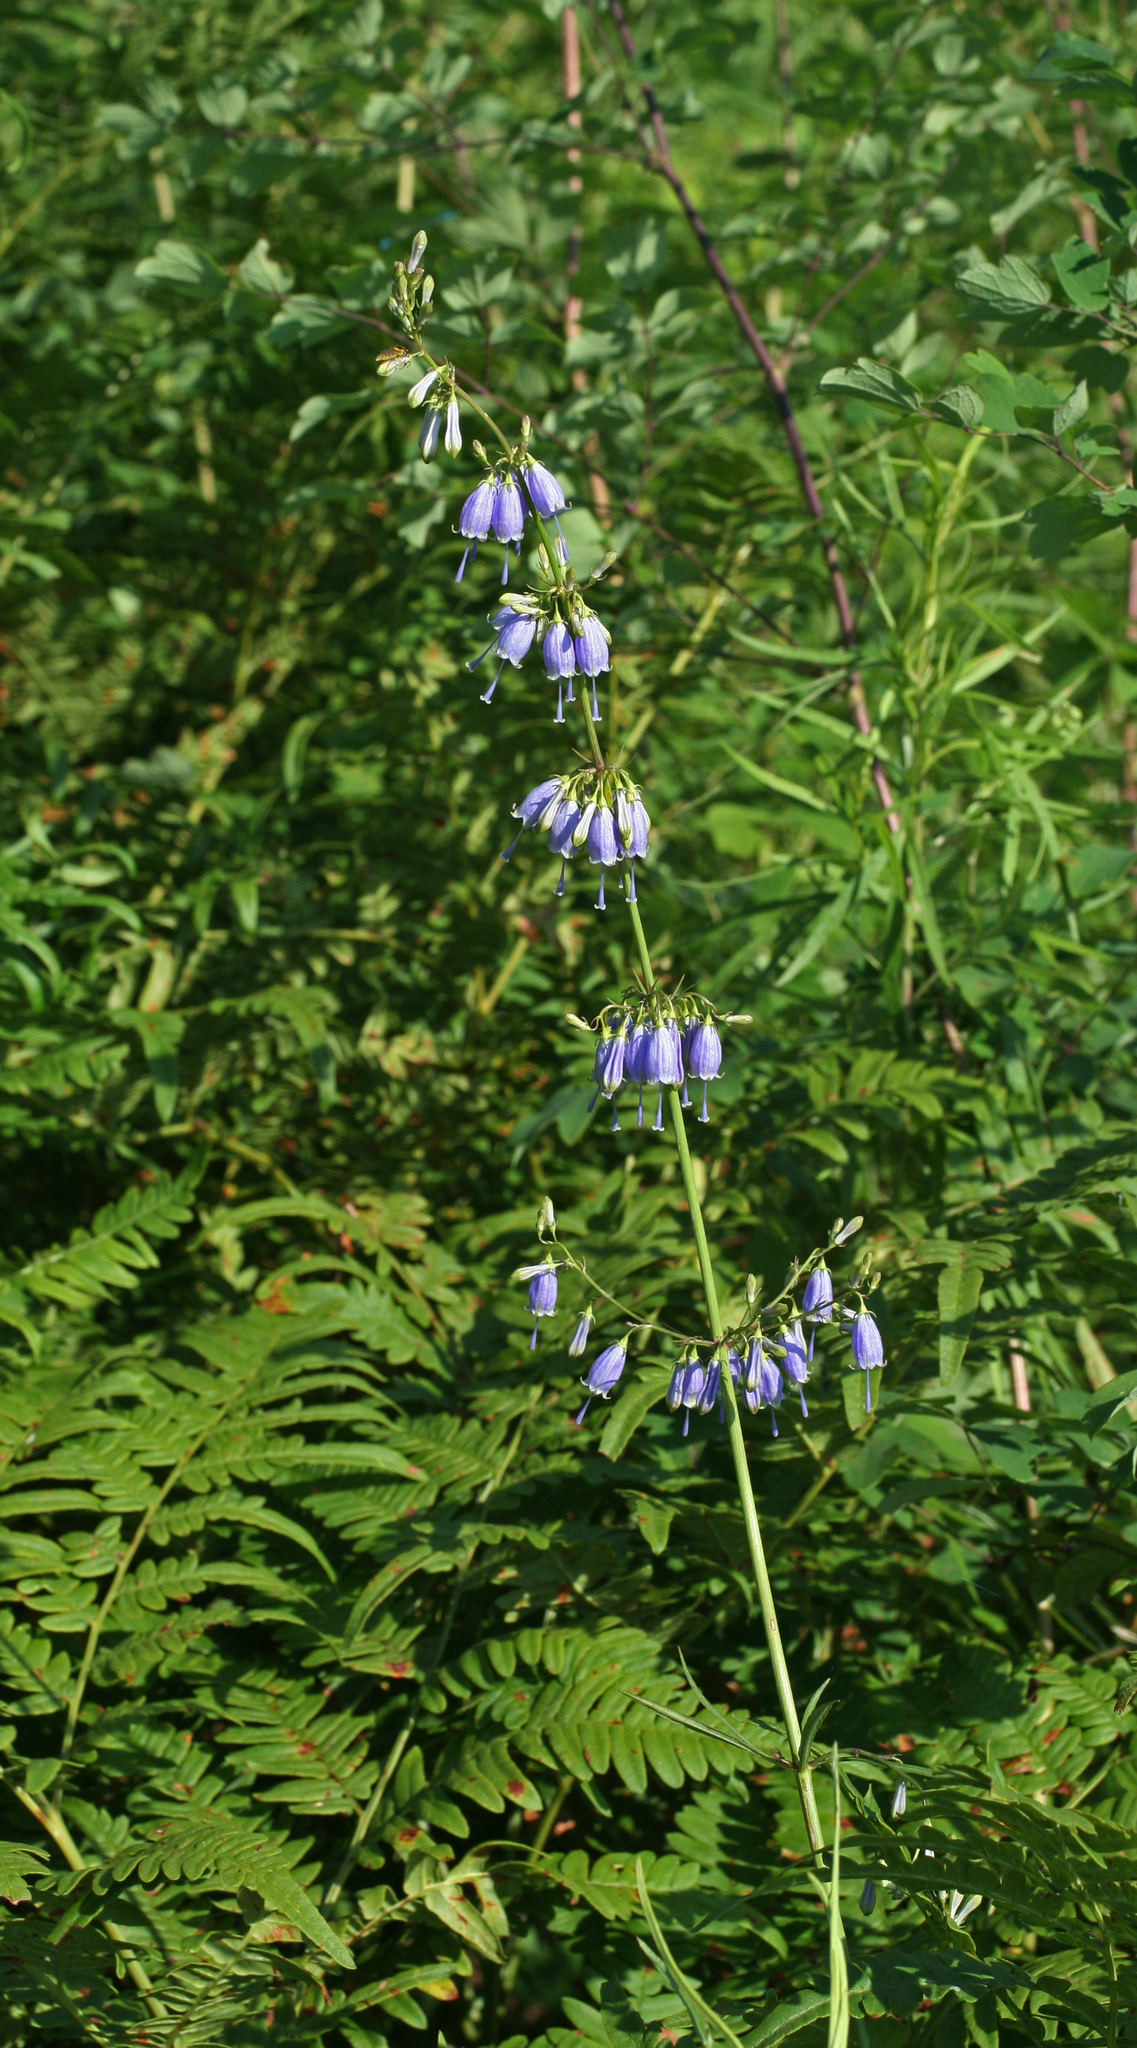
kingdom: Plantae
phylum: Tracheophyta
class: Magnoliopsida
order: Asterales
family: Campanulaceae
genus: Adenophora
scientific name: Adenophora triphylla
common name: Giant-bellflower
